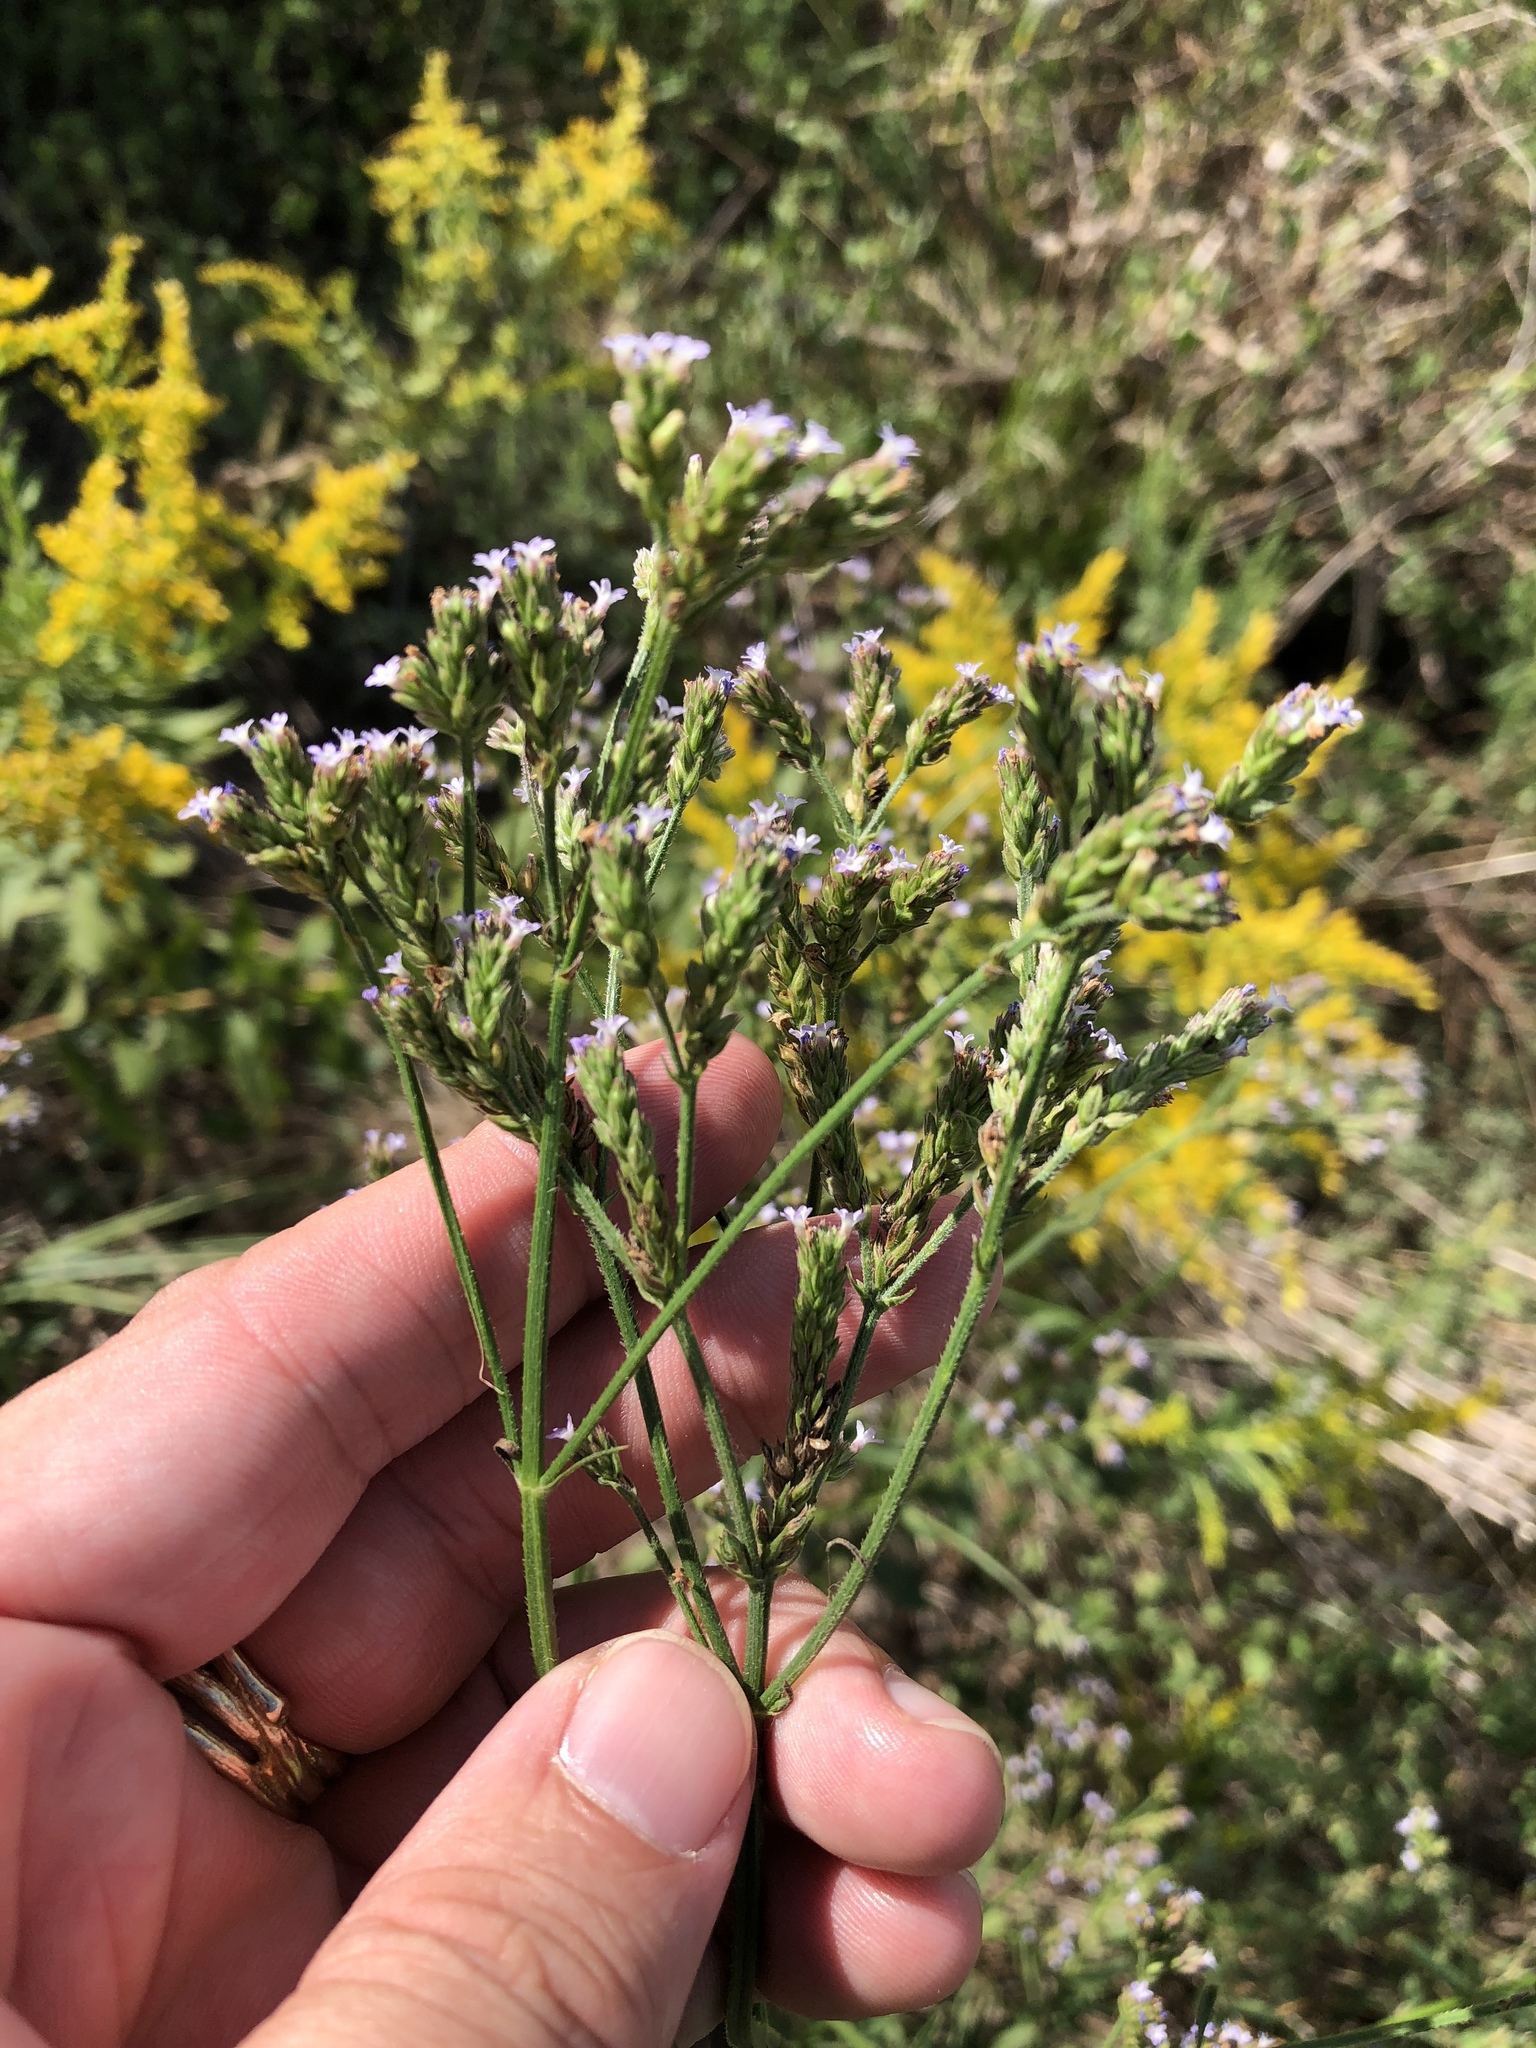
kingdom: Plantae
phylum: Tracheophyta
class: Magnoliopsida
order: Lamiales
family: Verbenaceae
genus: Verbena
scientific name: Verbena brasiliensis
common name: Brazilian vervain
